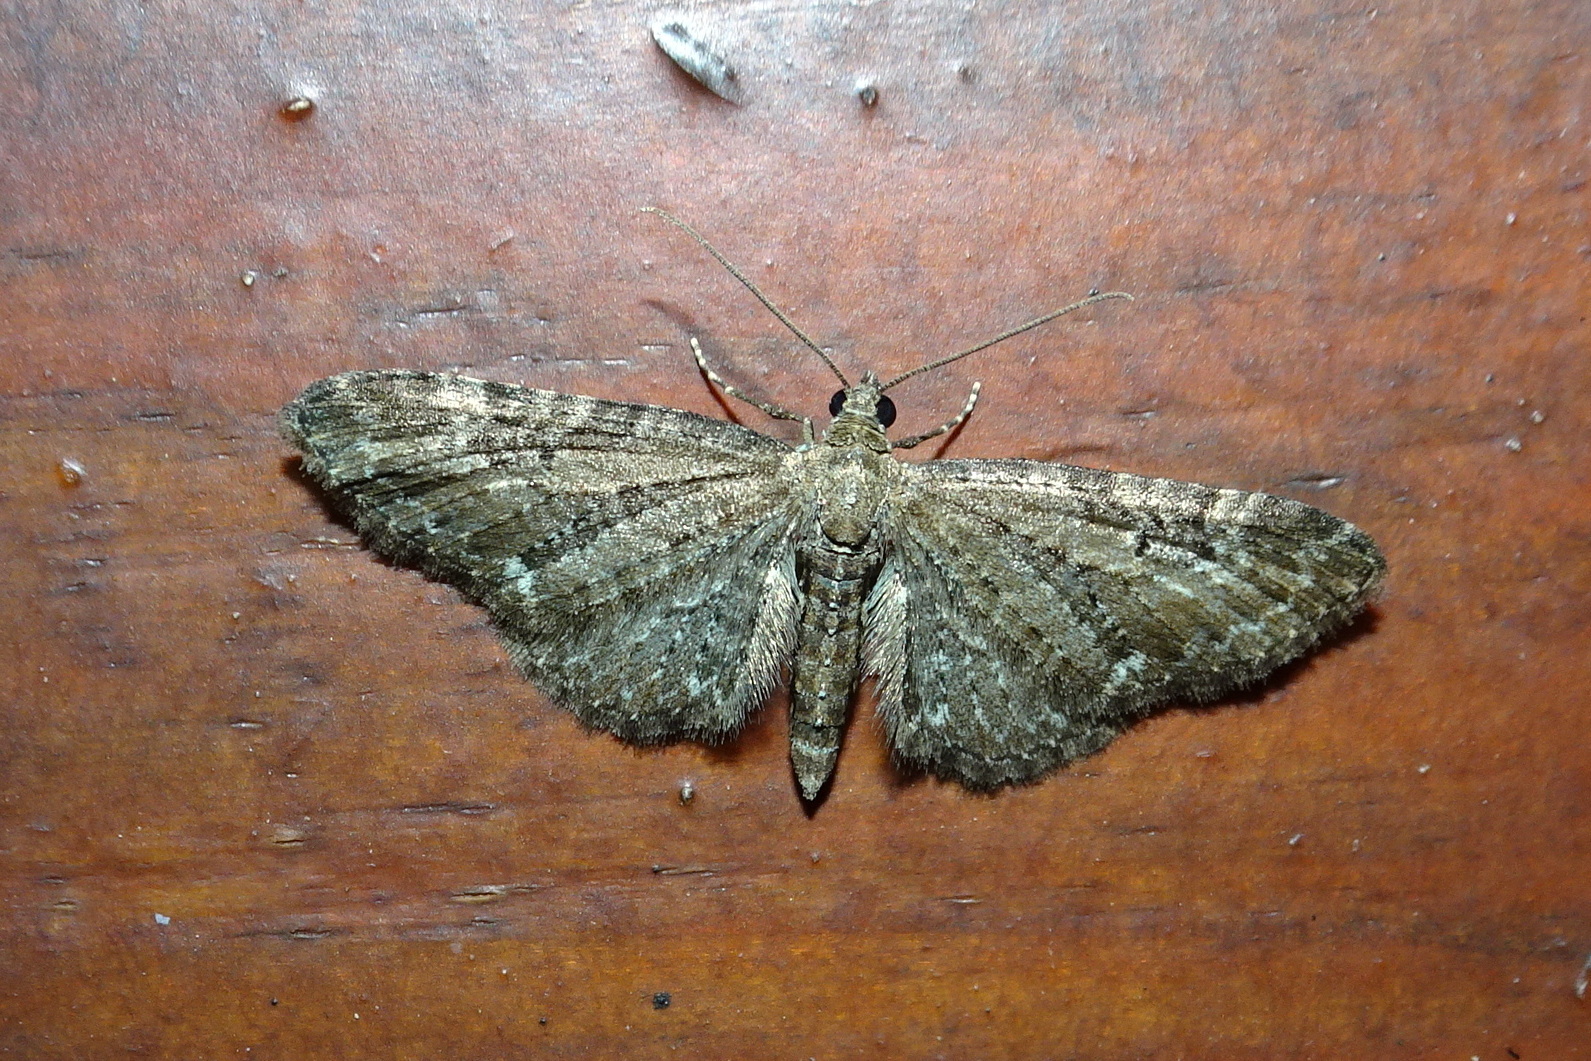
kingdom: Animalia
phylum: Arthropoda
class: Insecta
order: Lepidoptera
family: Geometridae
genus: Eupithecia
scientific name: Eupithecia vulgata
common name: Common pug
